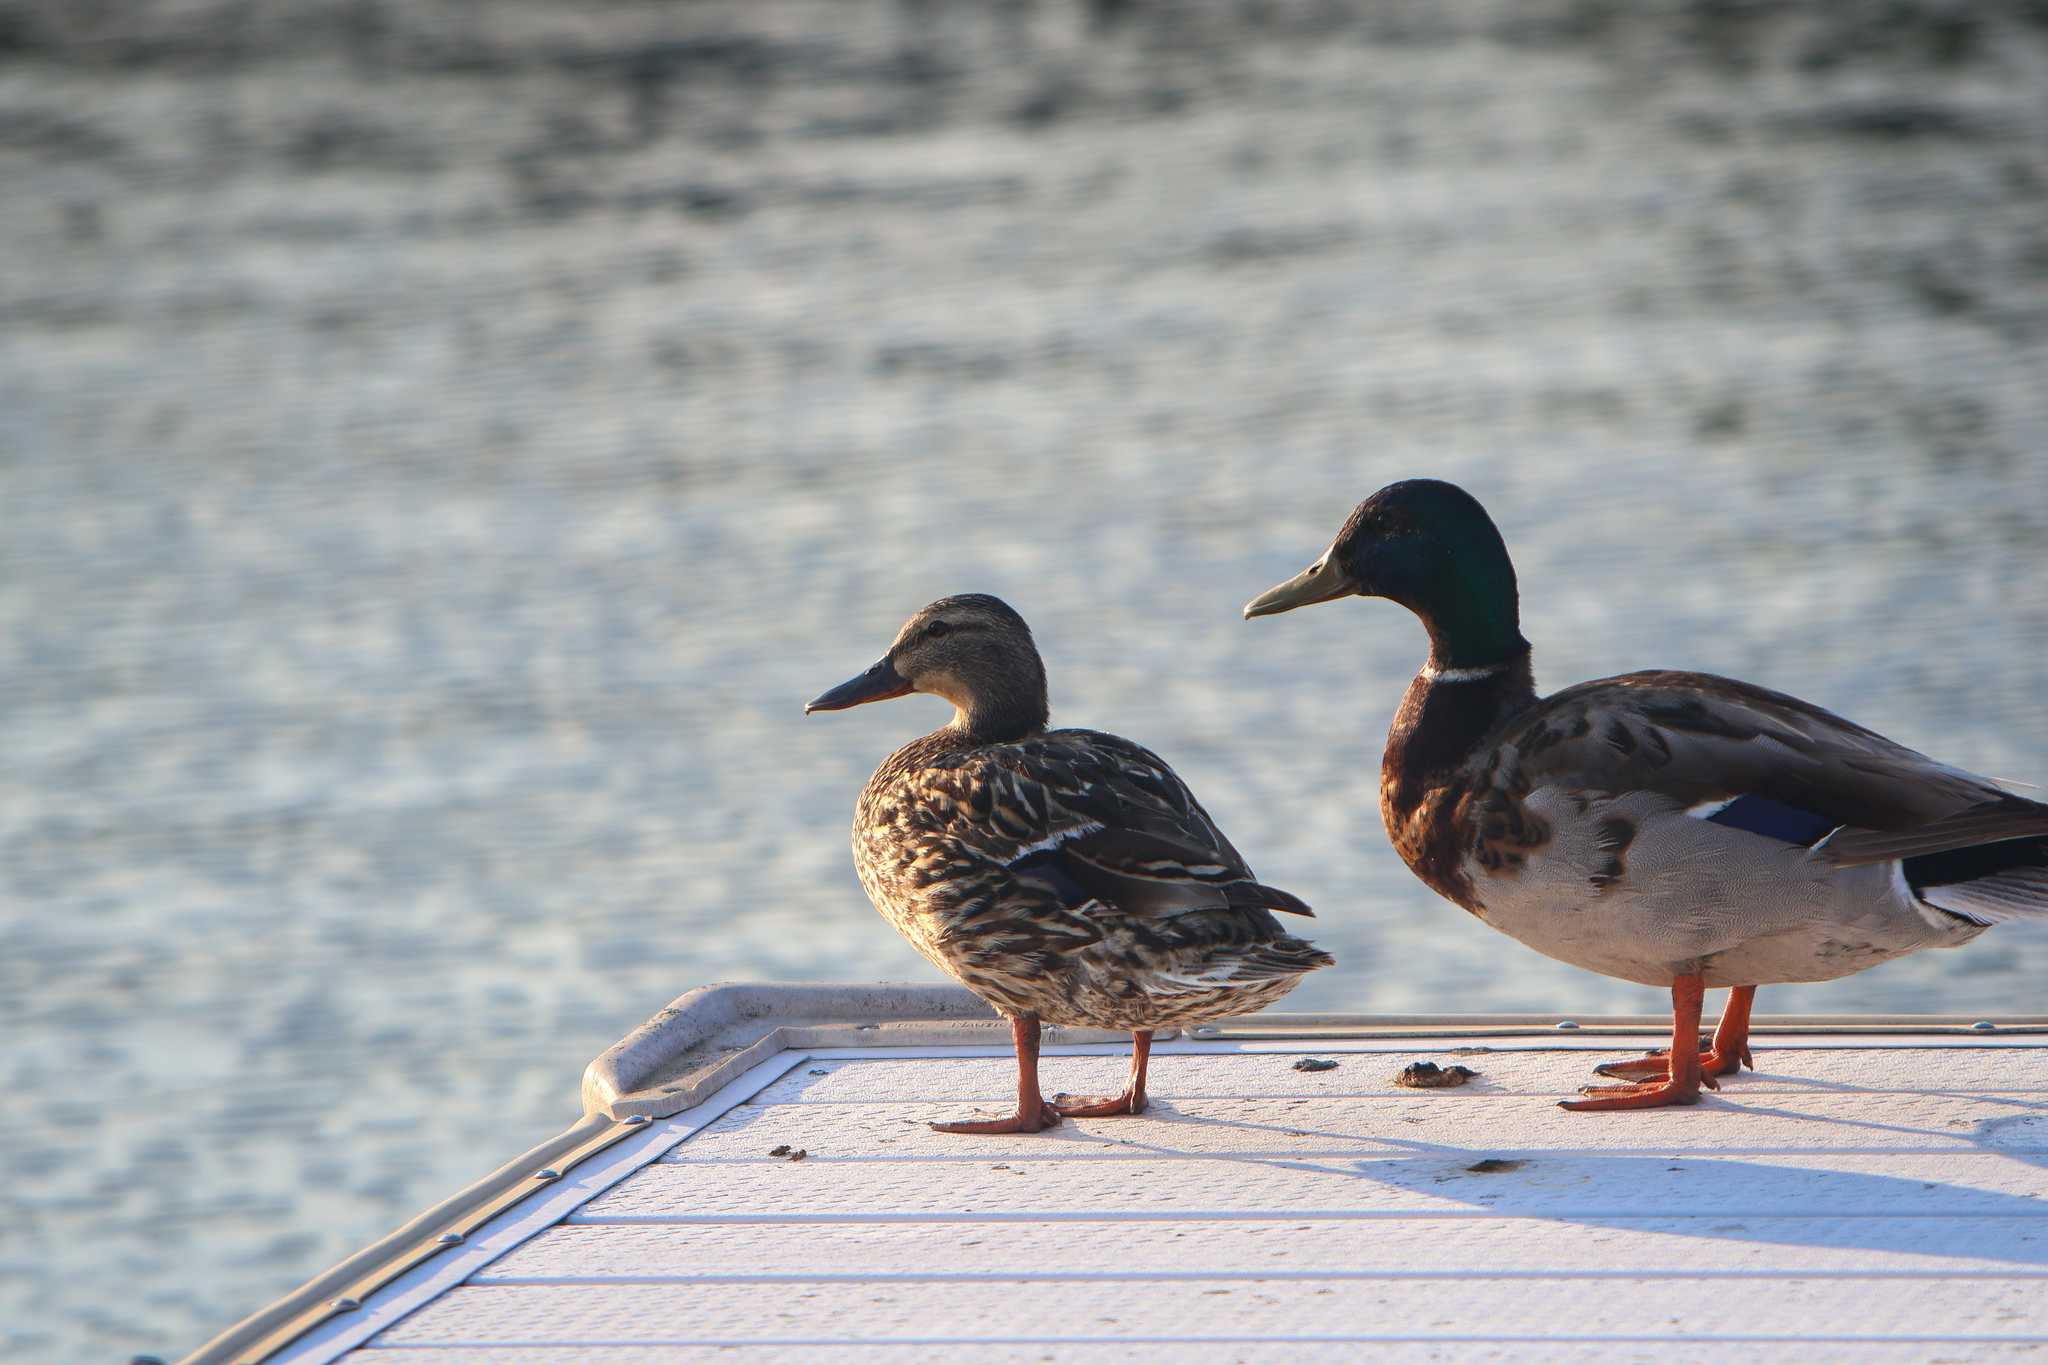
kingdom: Animalia
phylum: Chordata
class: Aves
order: Anseriformes
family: Anatidae
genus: Anas
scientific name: Anas platyrhynchos
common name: Mallard
